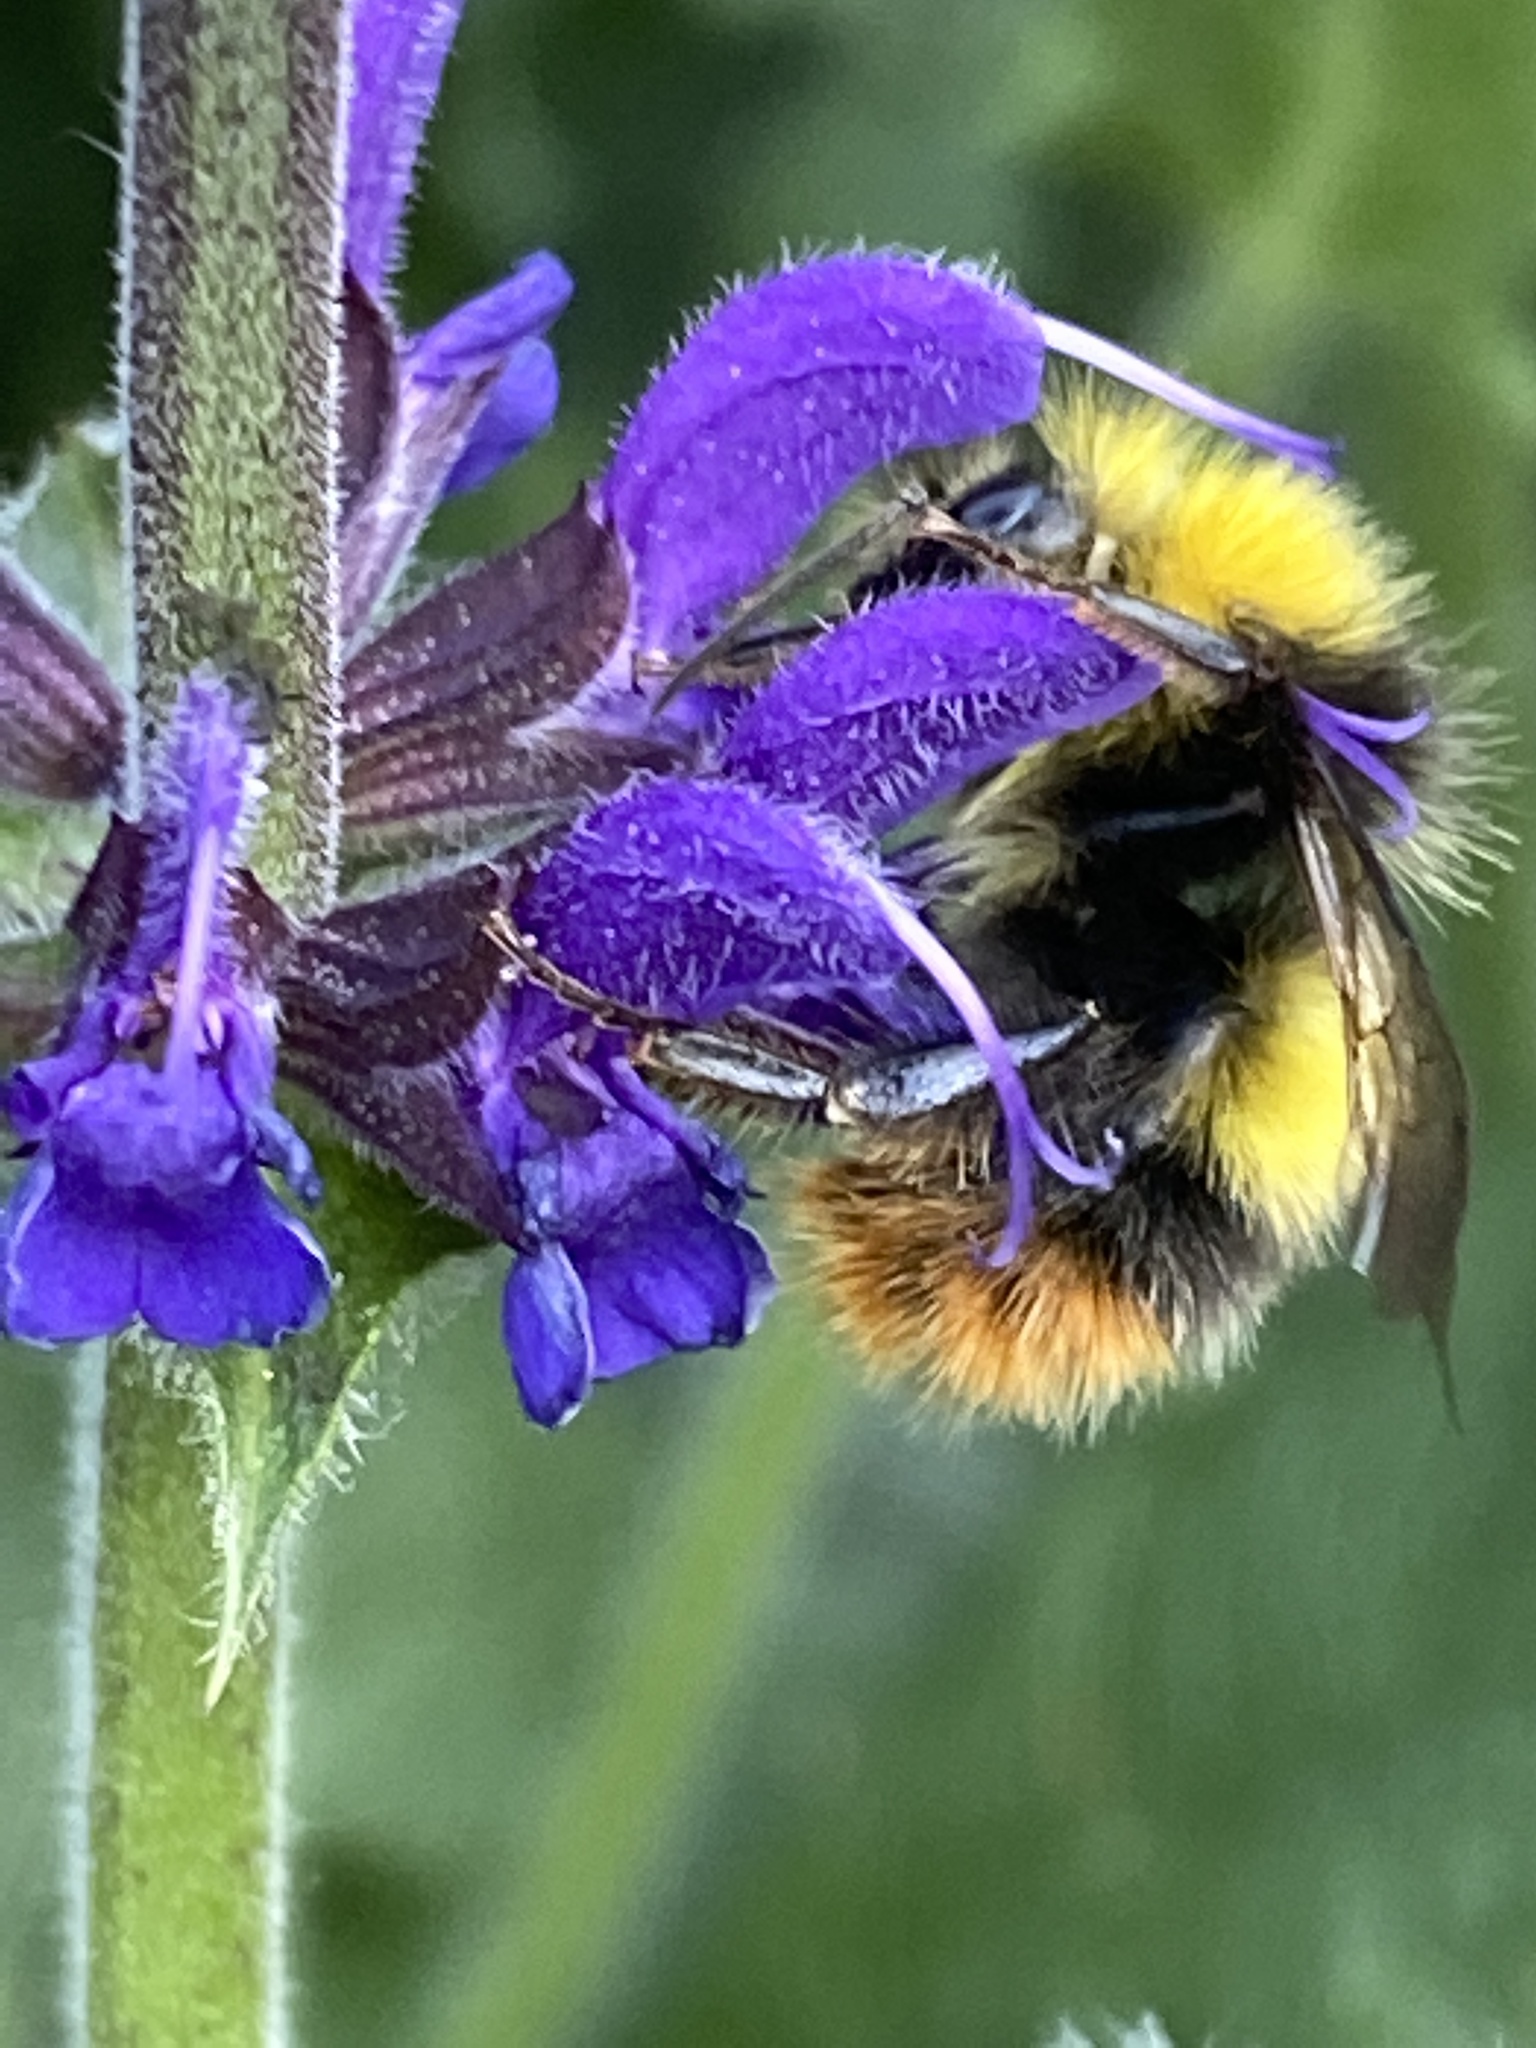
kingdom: Animalia
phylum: Arthropoda
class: Insecta
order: Hymenoptera
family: Apidae
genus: Bombus
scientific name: Bombus pratorum
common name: Early humble-bee
